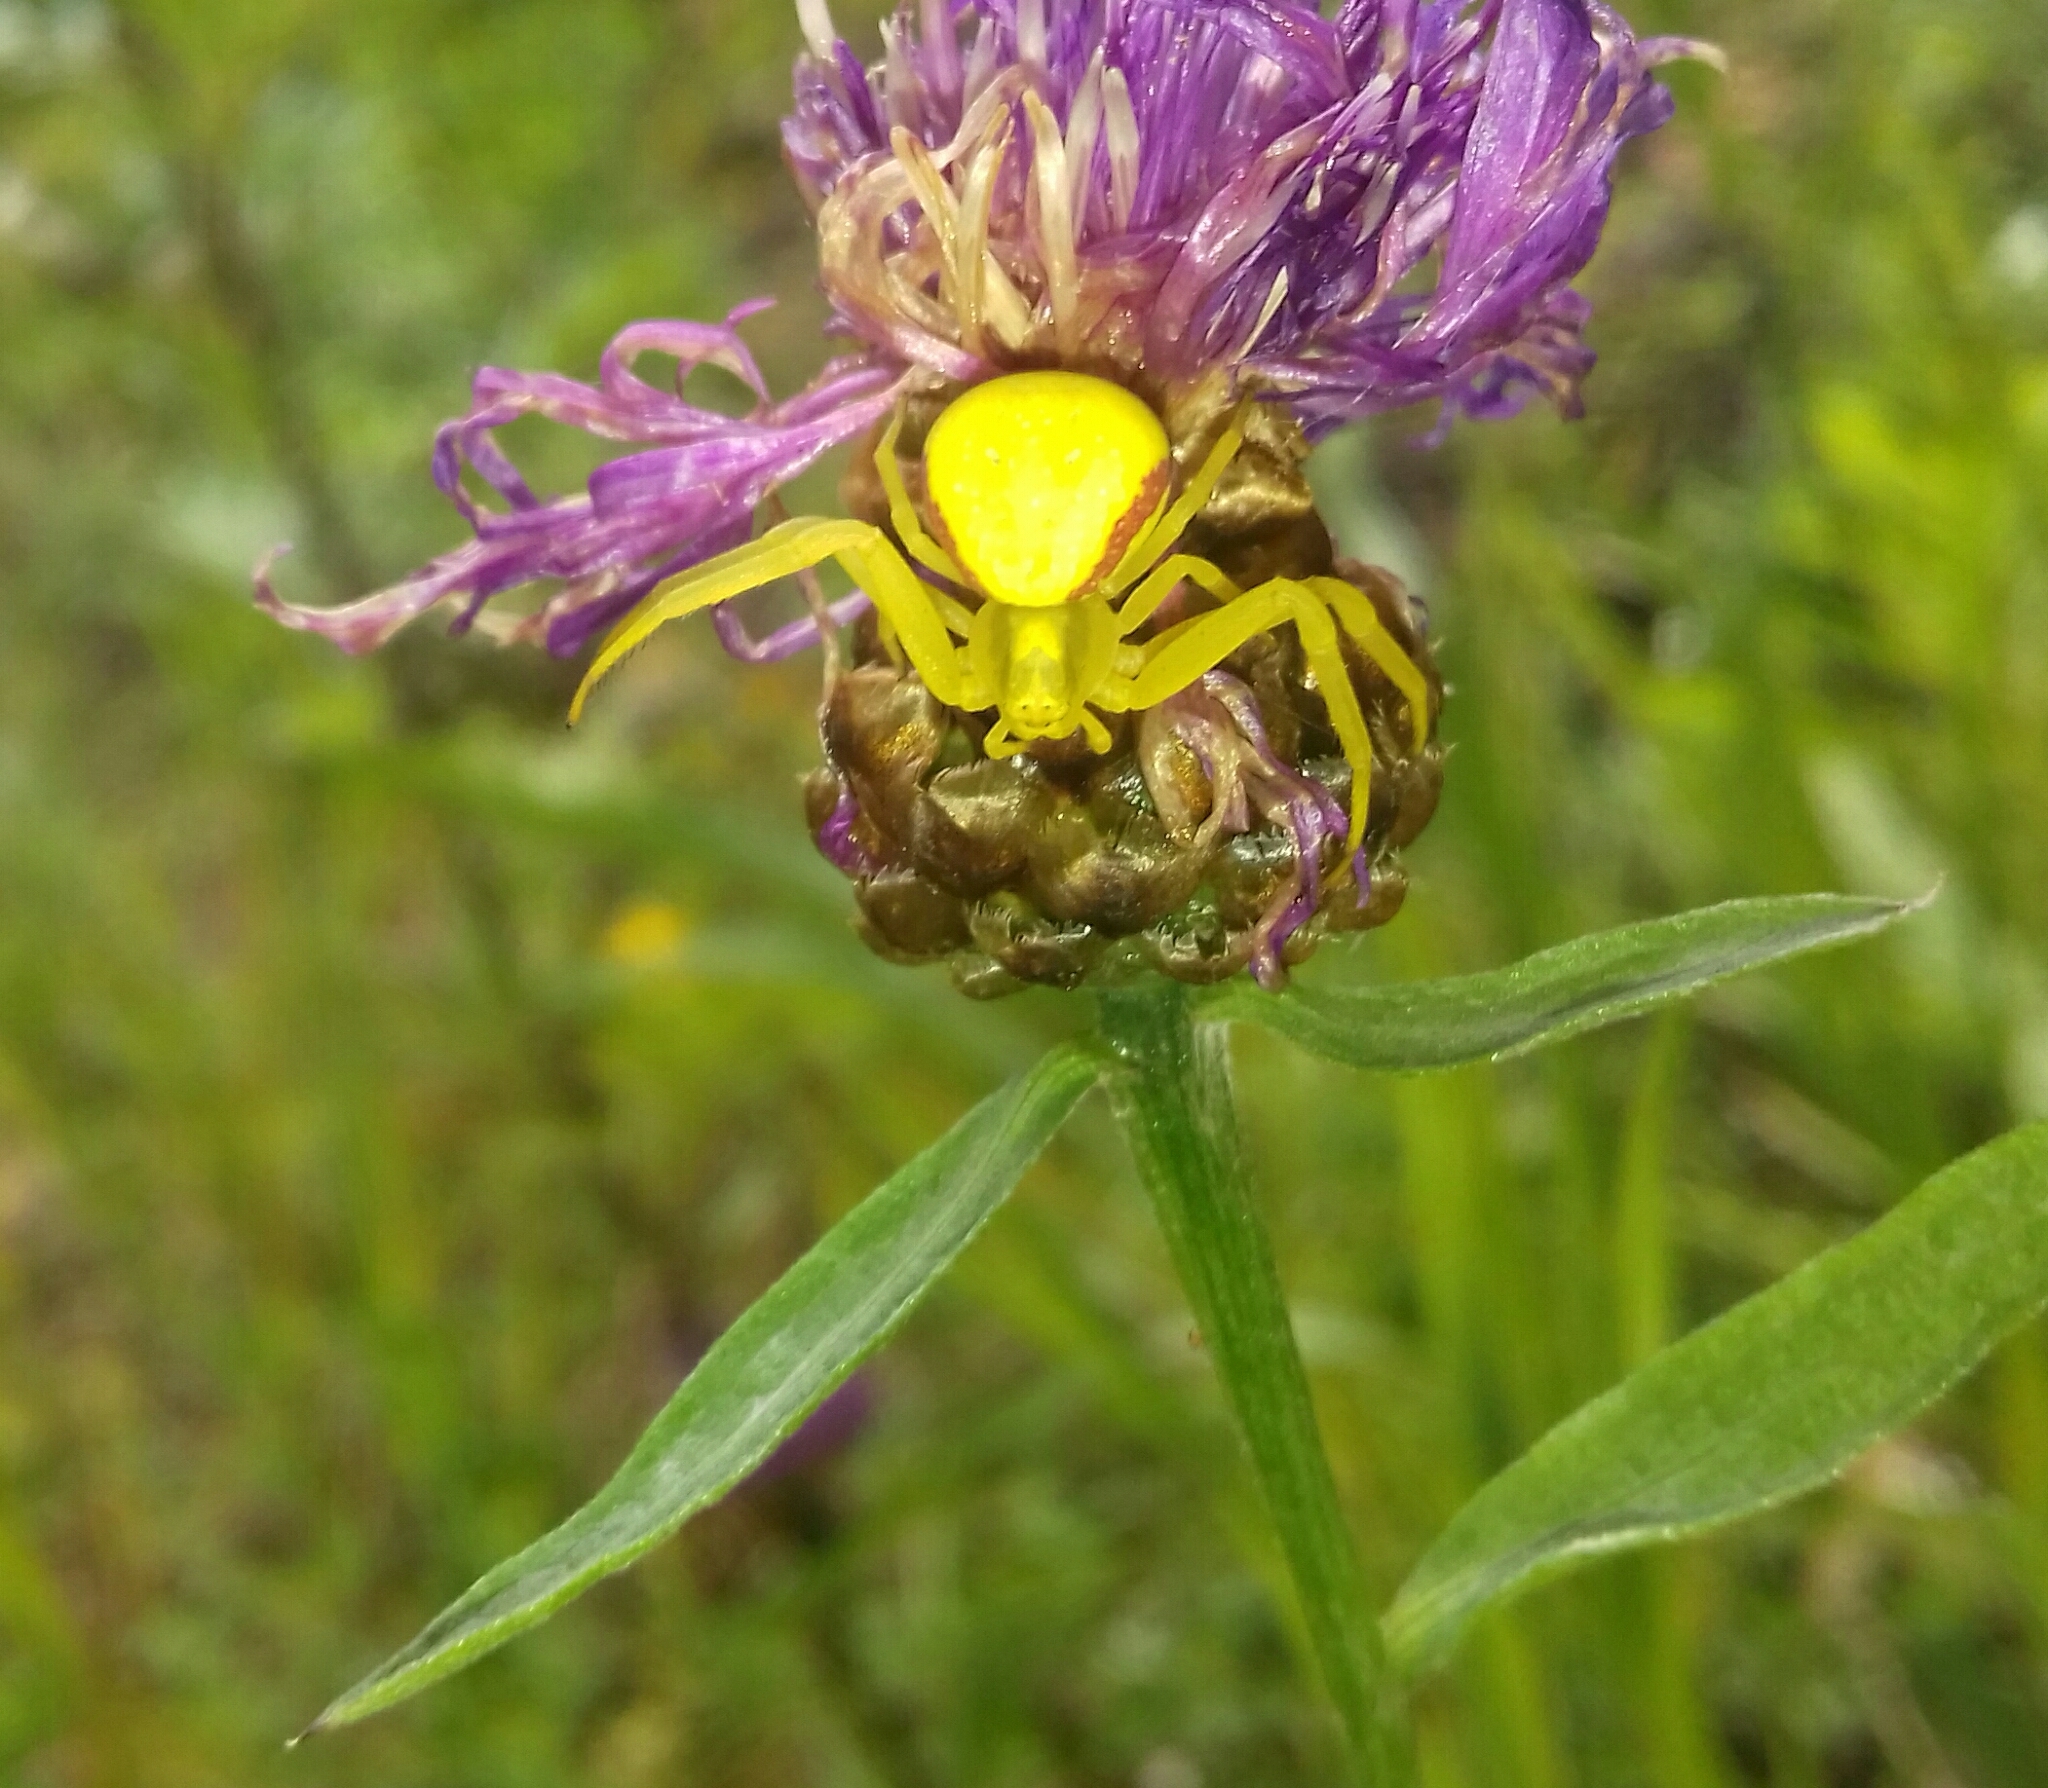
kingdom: Animalia
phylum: Arthropoda
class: Arachnida
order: Araneae
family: Thomisidae
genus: Misumena
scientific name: Misumena vatia
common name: Goldenrod crab spider
